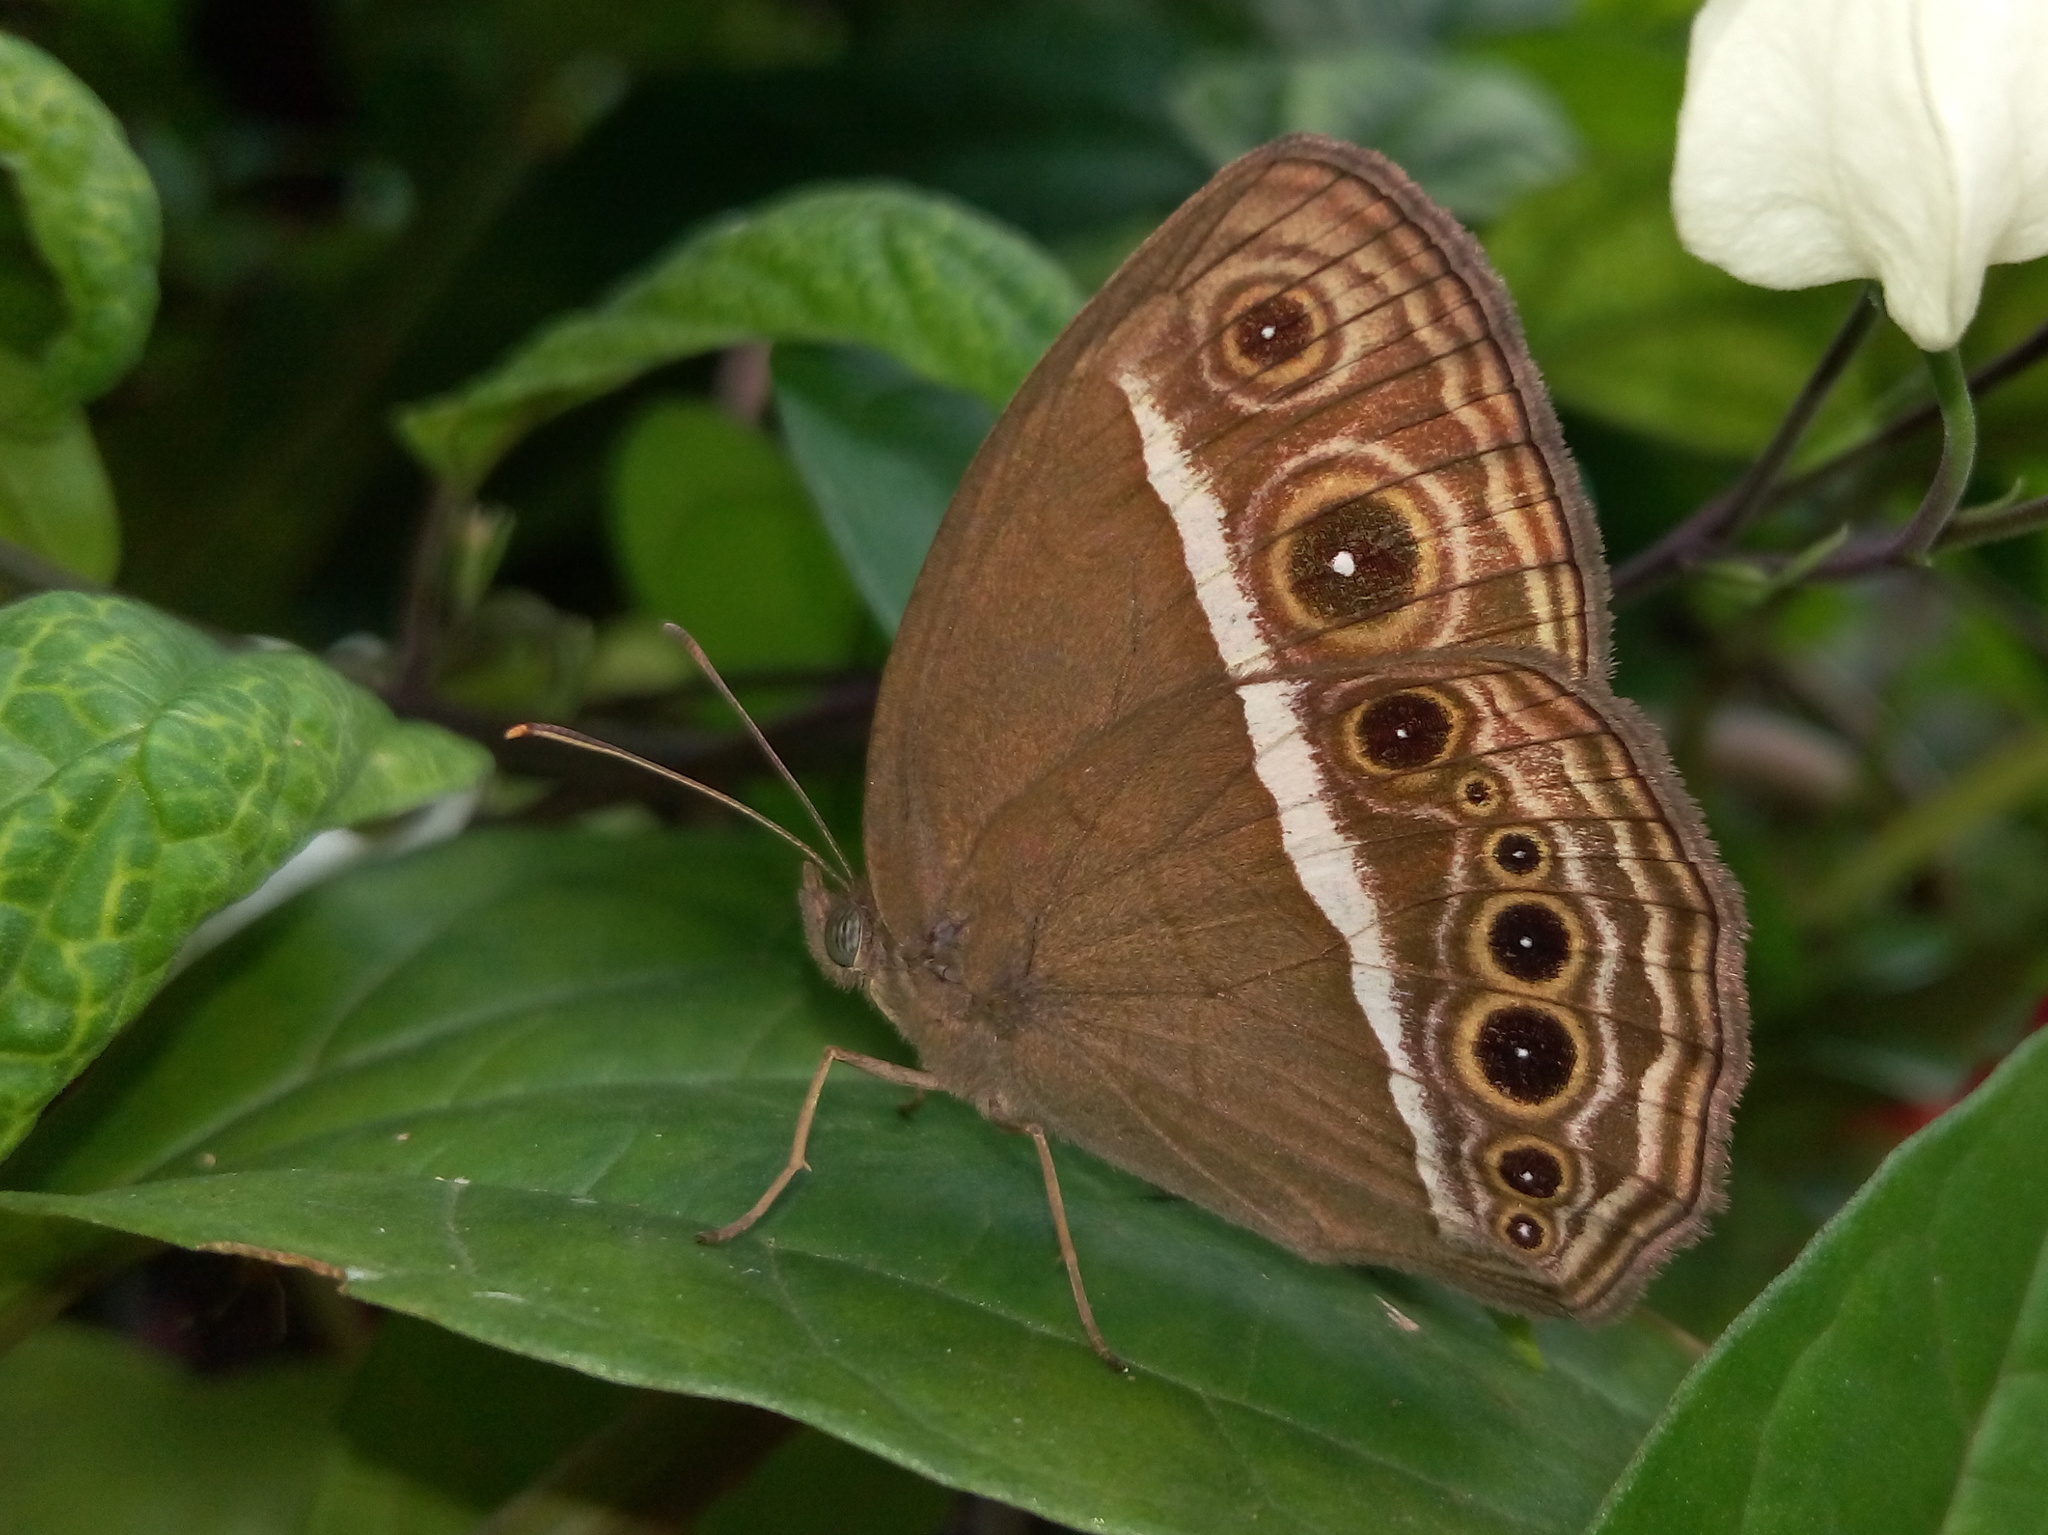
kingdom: Animalia
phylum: Arthropoda
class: Insecta
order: Lepidoptera
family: Nymphalidae
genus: Mycalesis
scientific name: Mycalesis mineus
